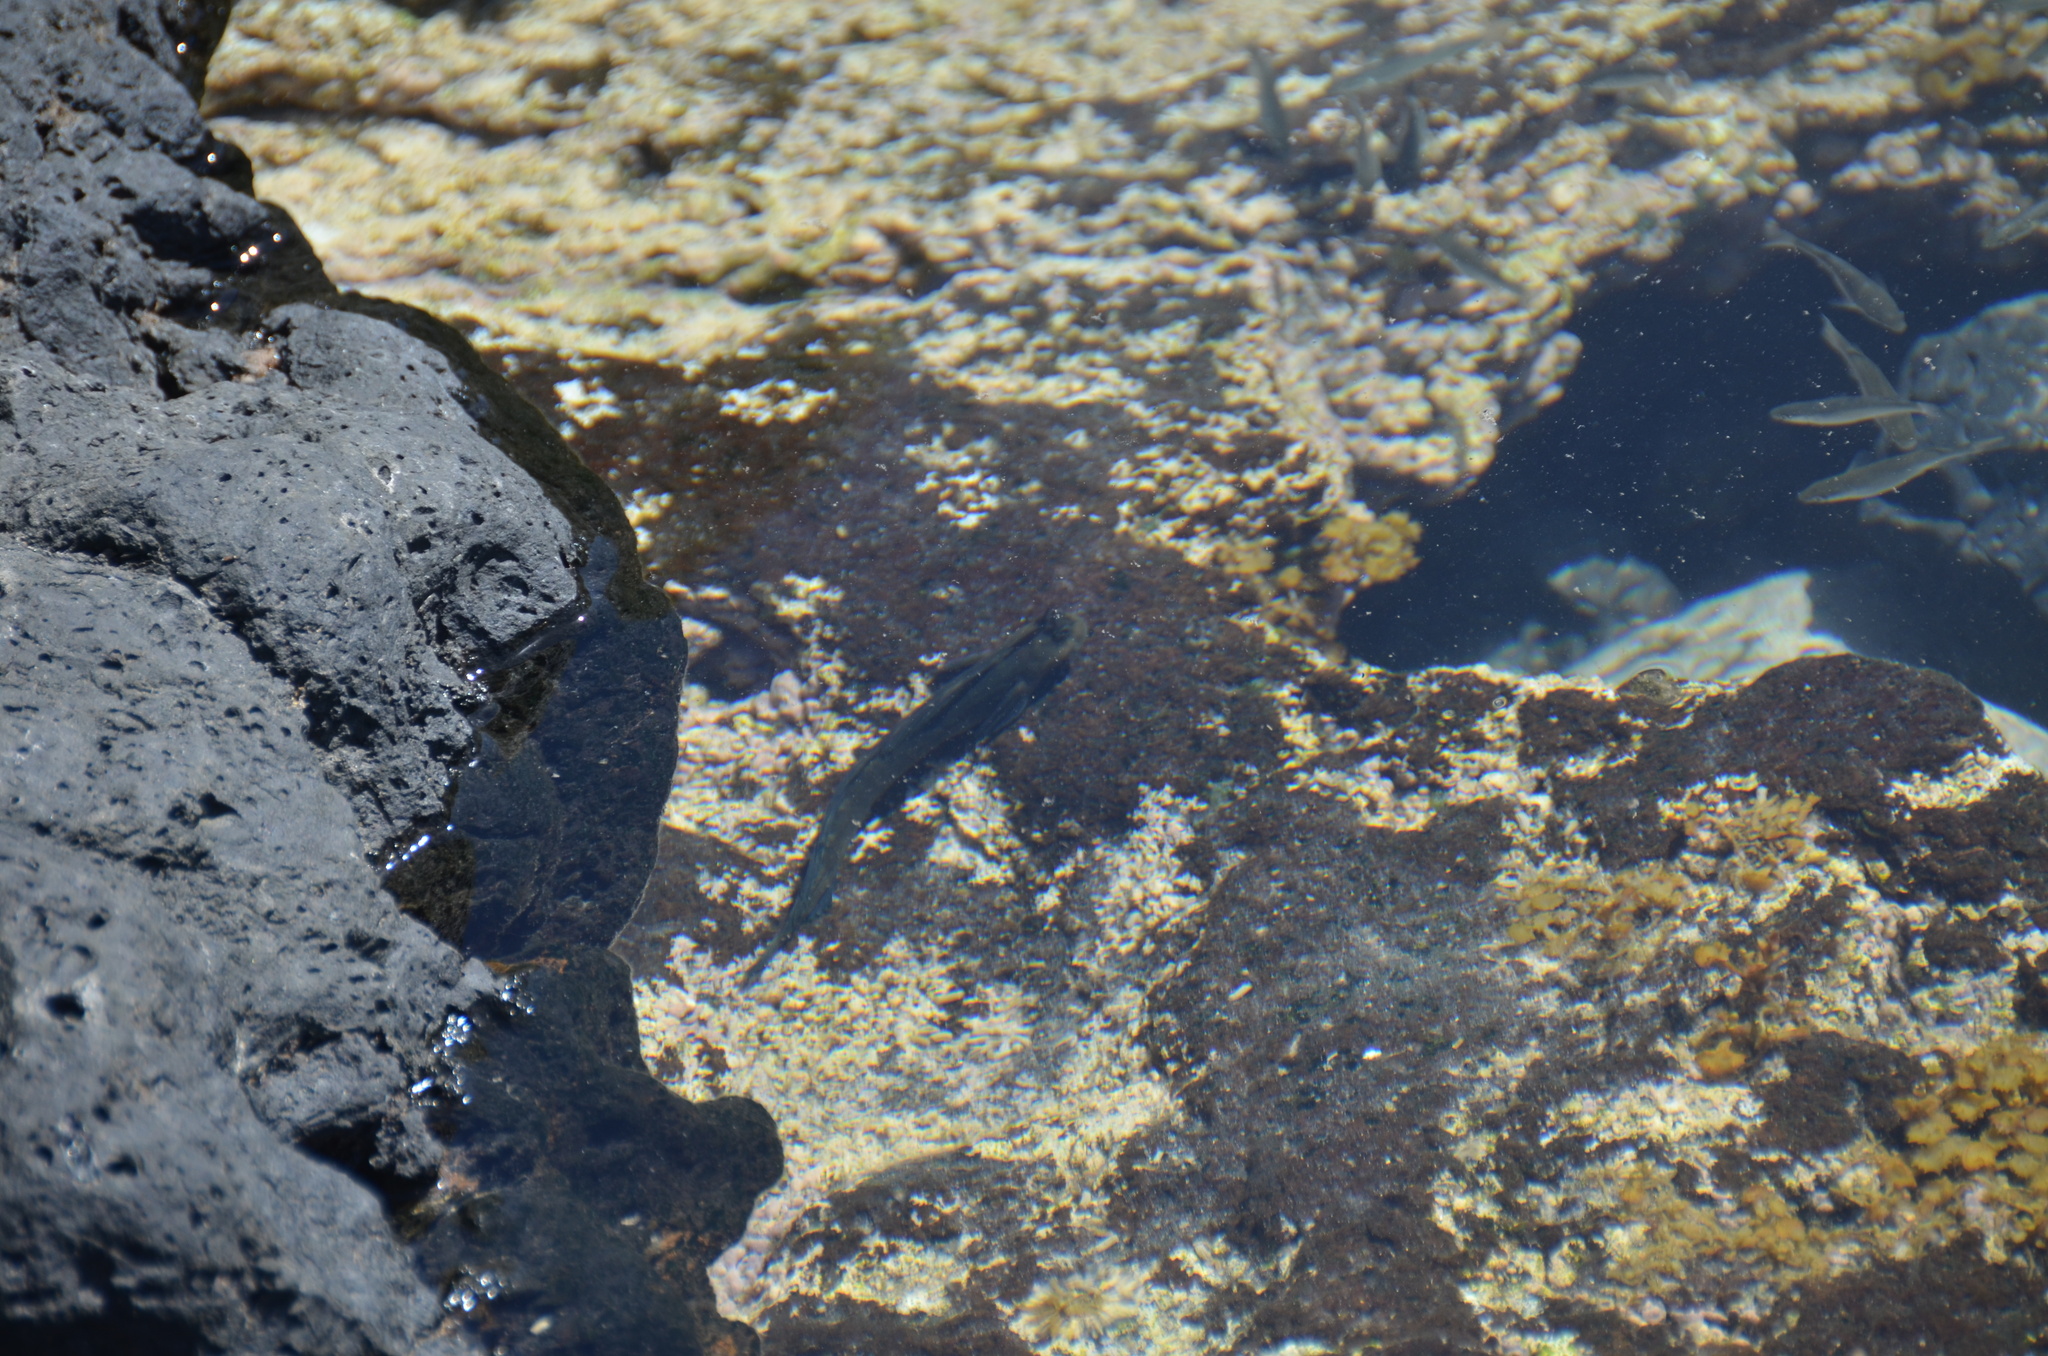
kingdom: Animalia
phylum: Chordata
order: Perciformes
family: Blenniidae
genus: Istiblennius
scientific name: Istiblennius zebra
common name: Zebra blenny
